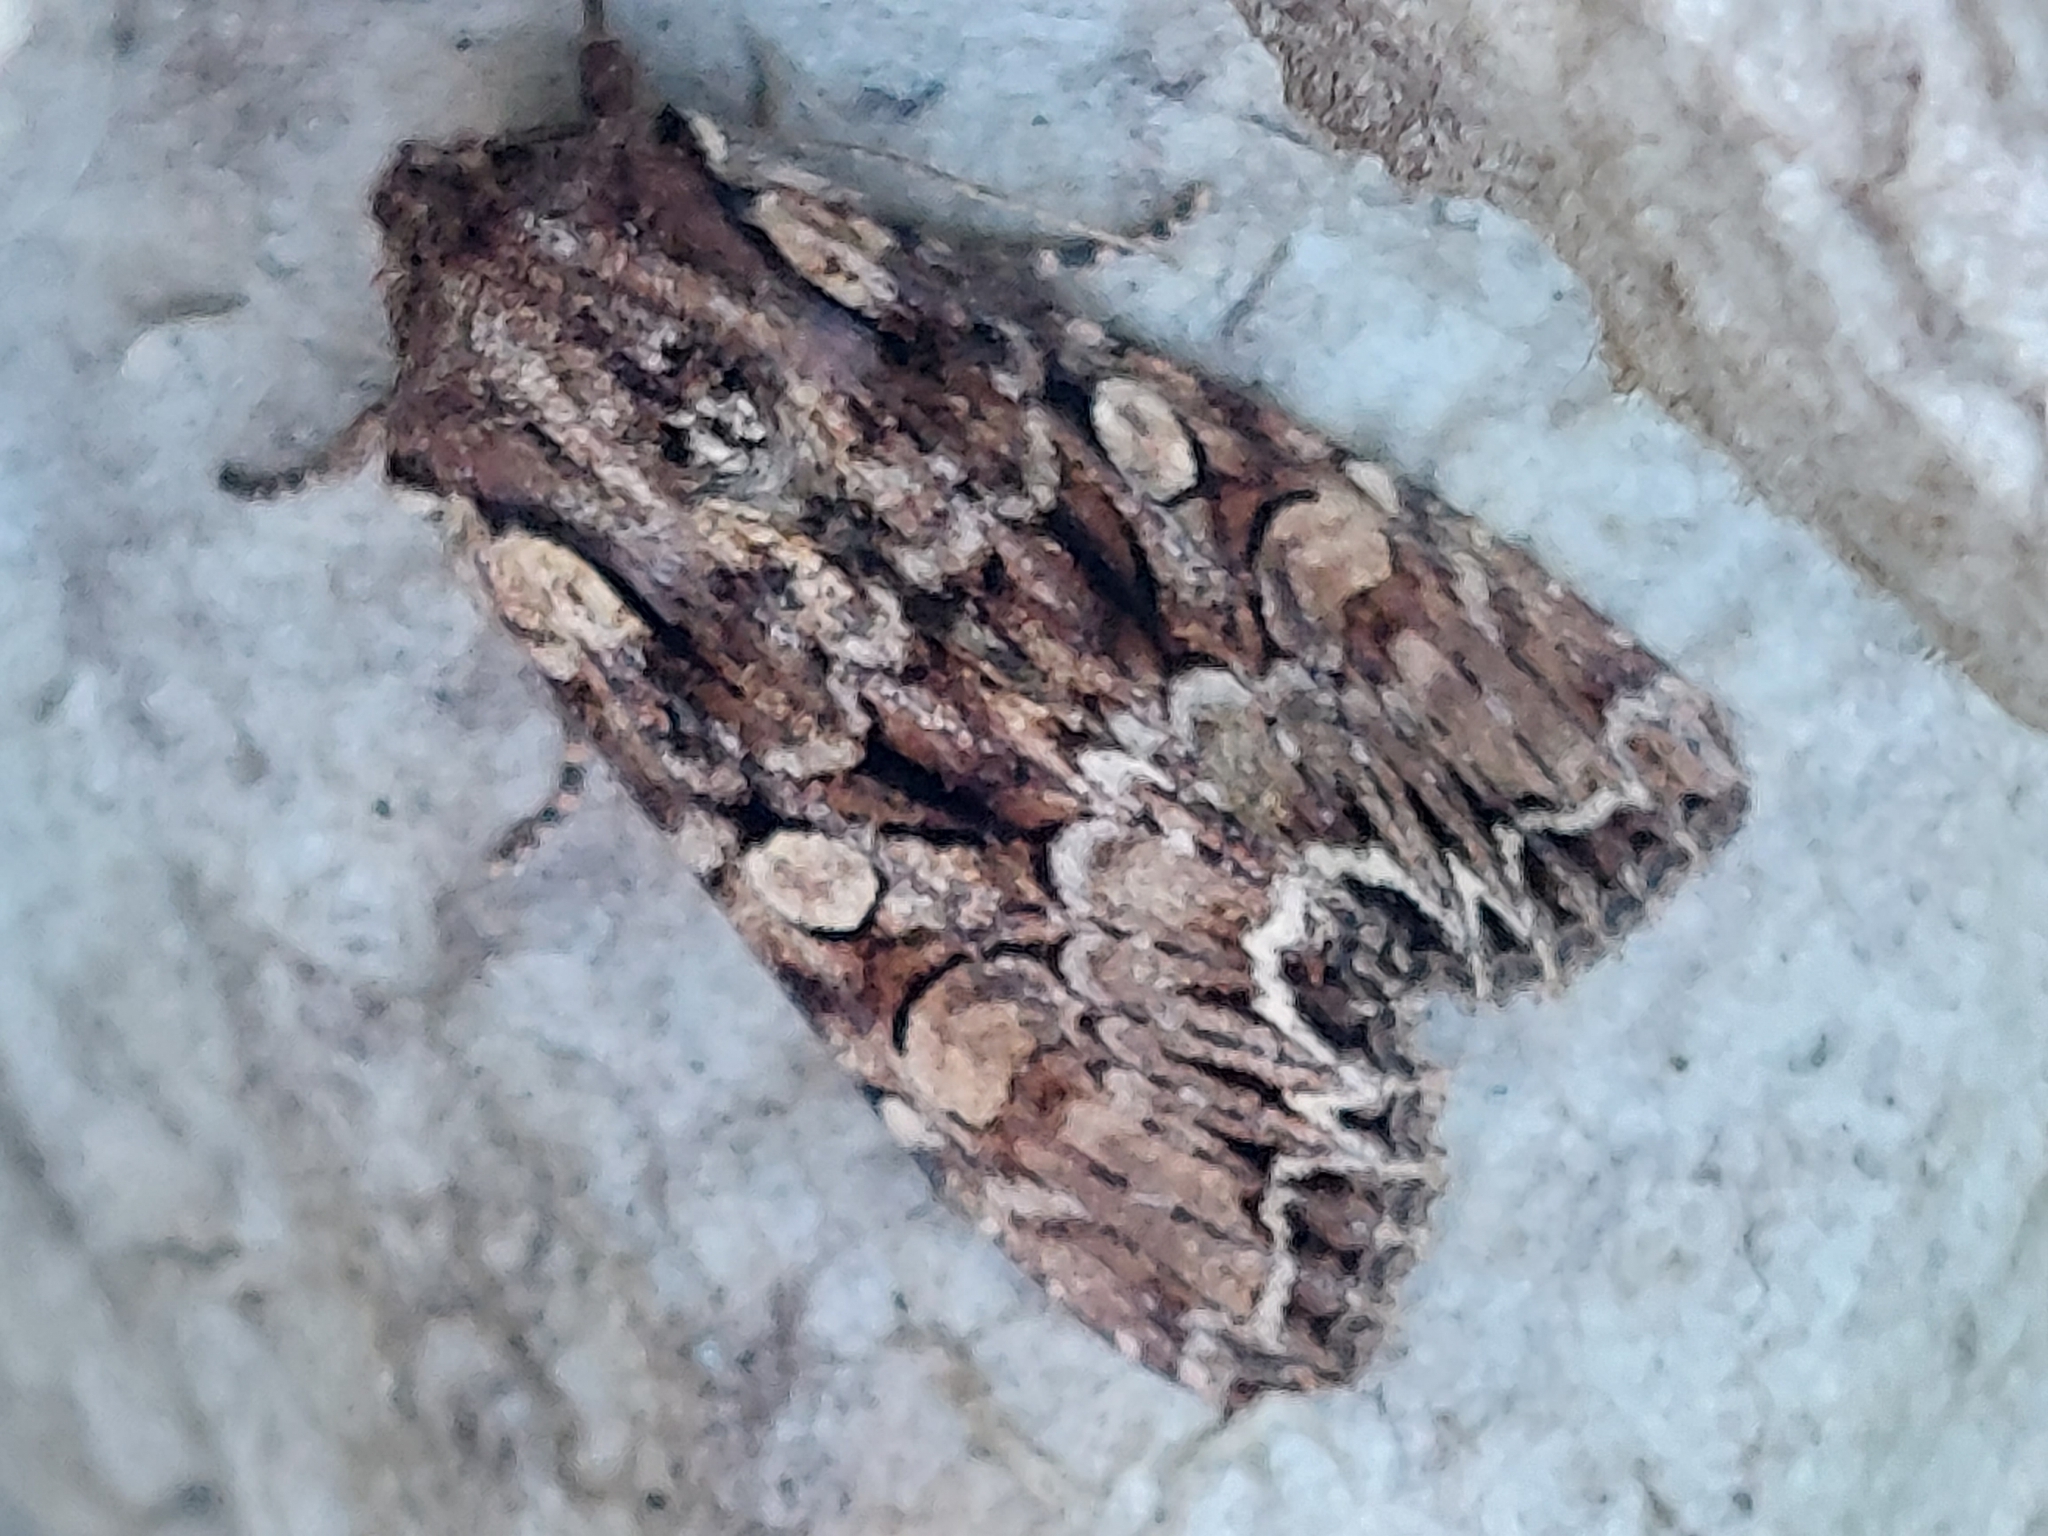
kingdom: Animalia
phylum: Arthropoda
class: Insecta
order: Lepidoptera
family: Noctuidae
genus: Lacanobia
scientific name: Lacanobia thalassina
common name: Pale-shouldered brocade
